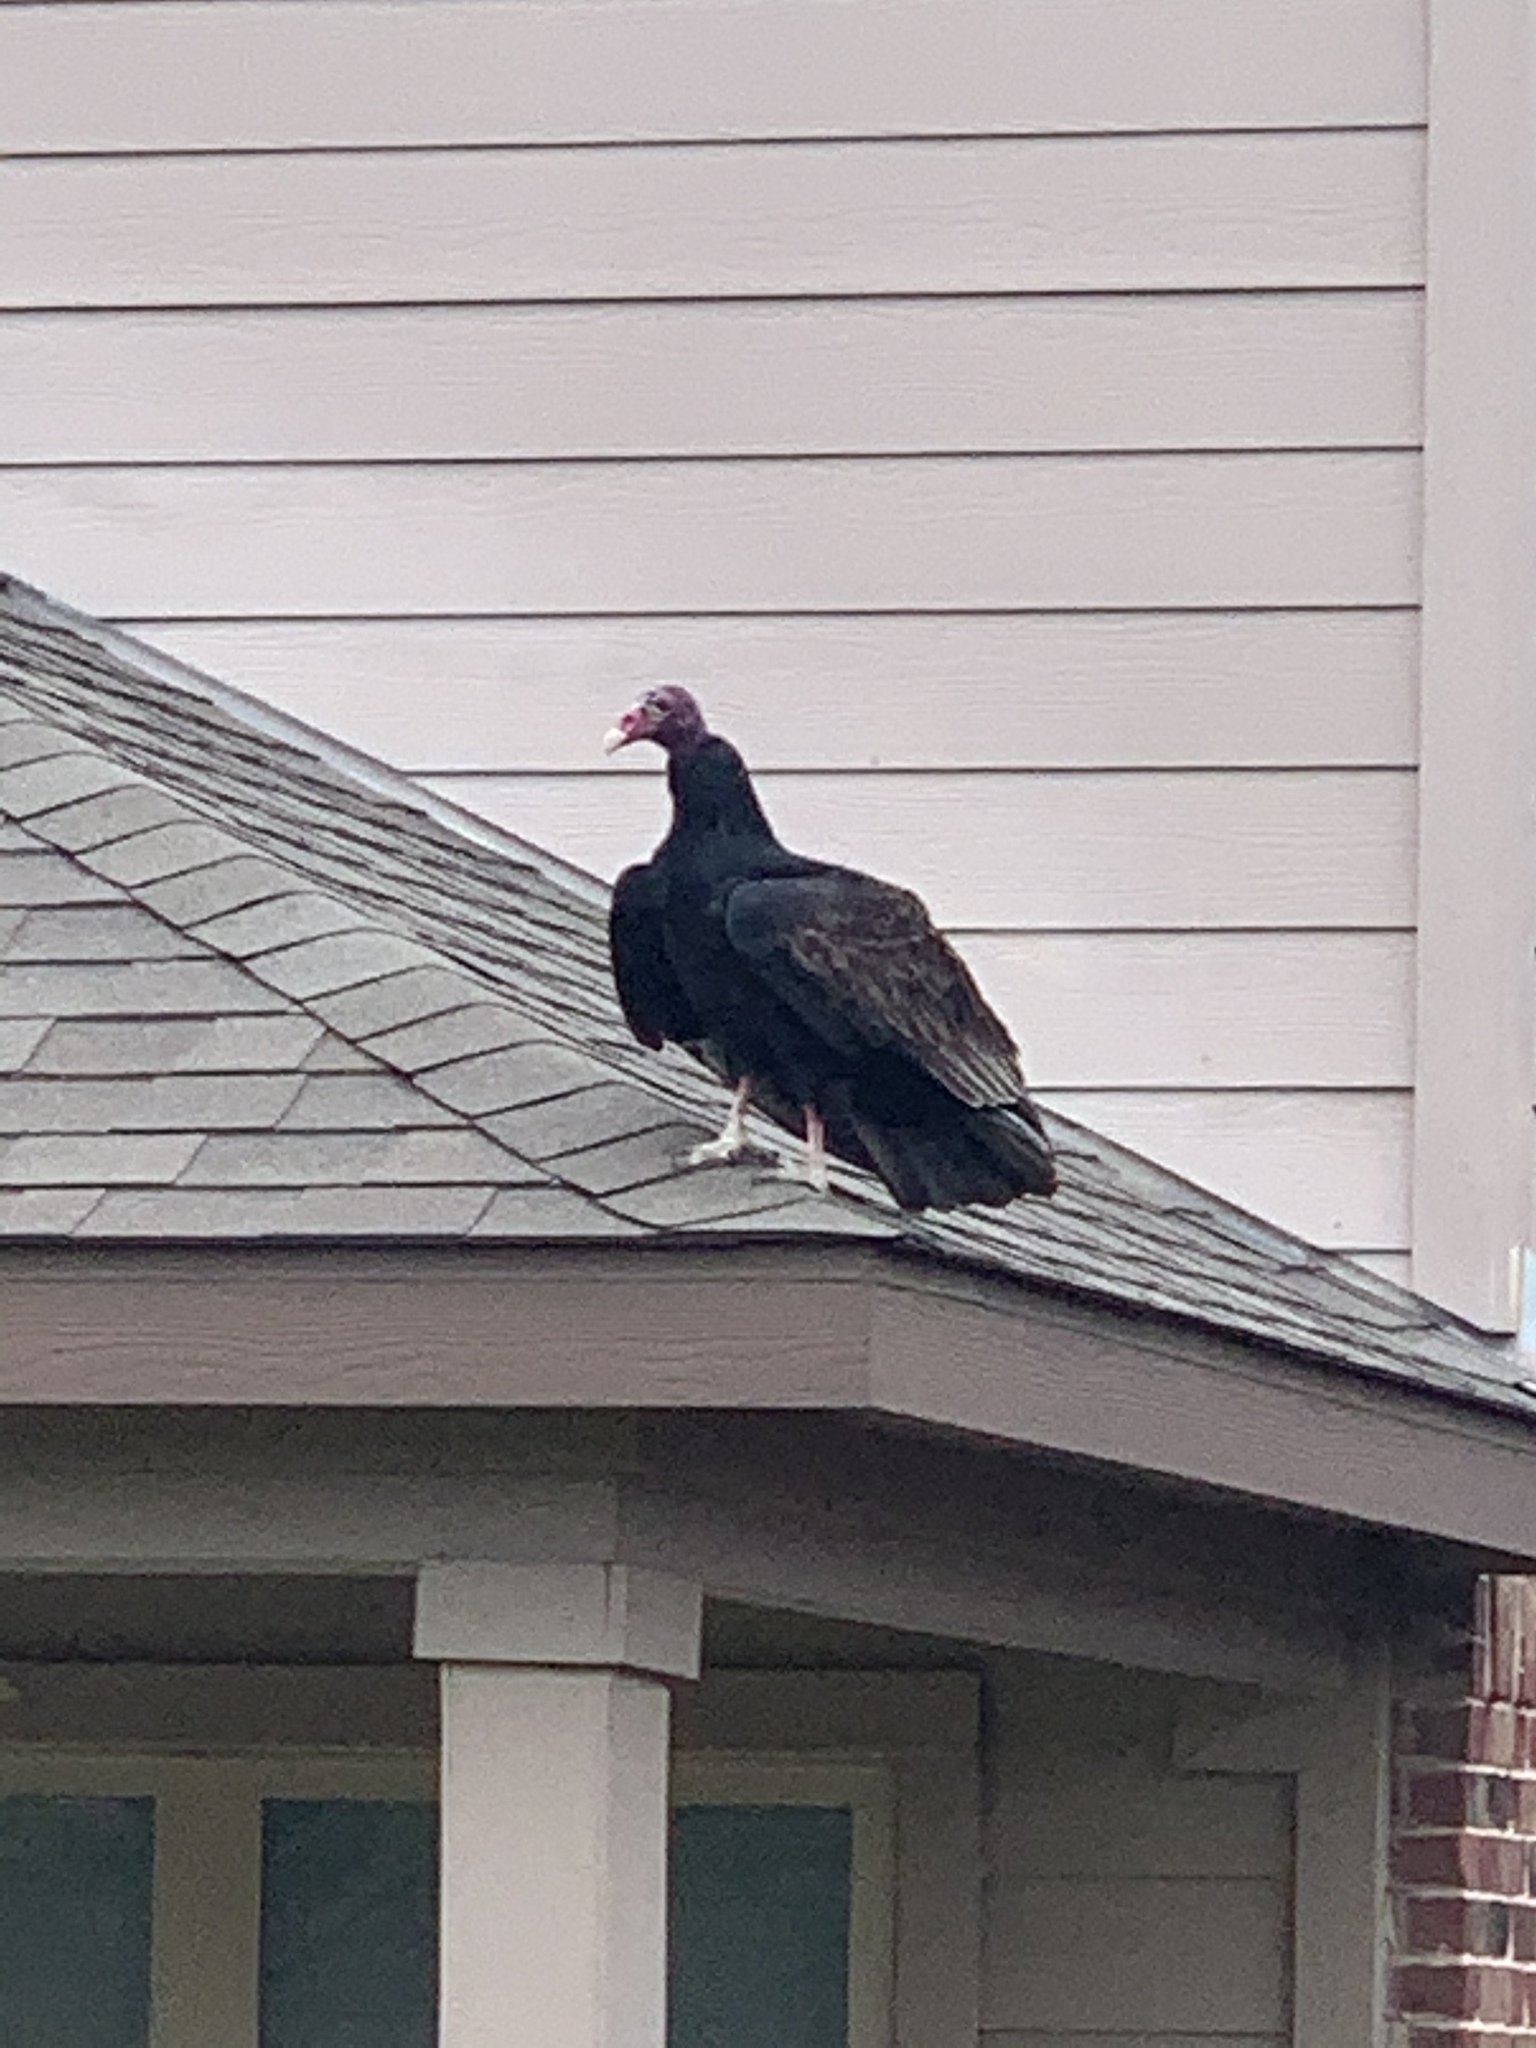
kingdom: Animalia
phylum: Chordata
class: Aves
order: Accipitriformes
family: Cathartidae
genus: Cathartes
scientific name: Cathartes aura
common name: Turkey vulture
